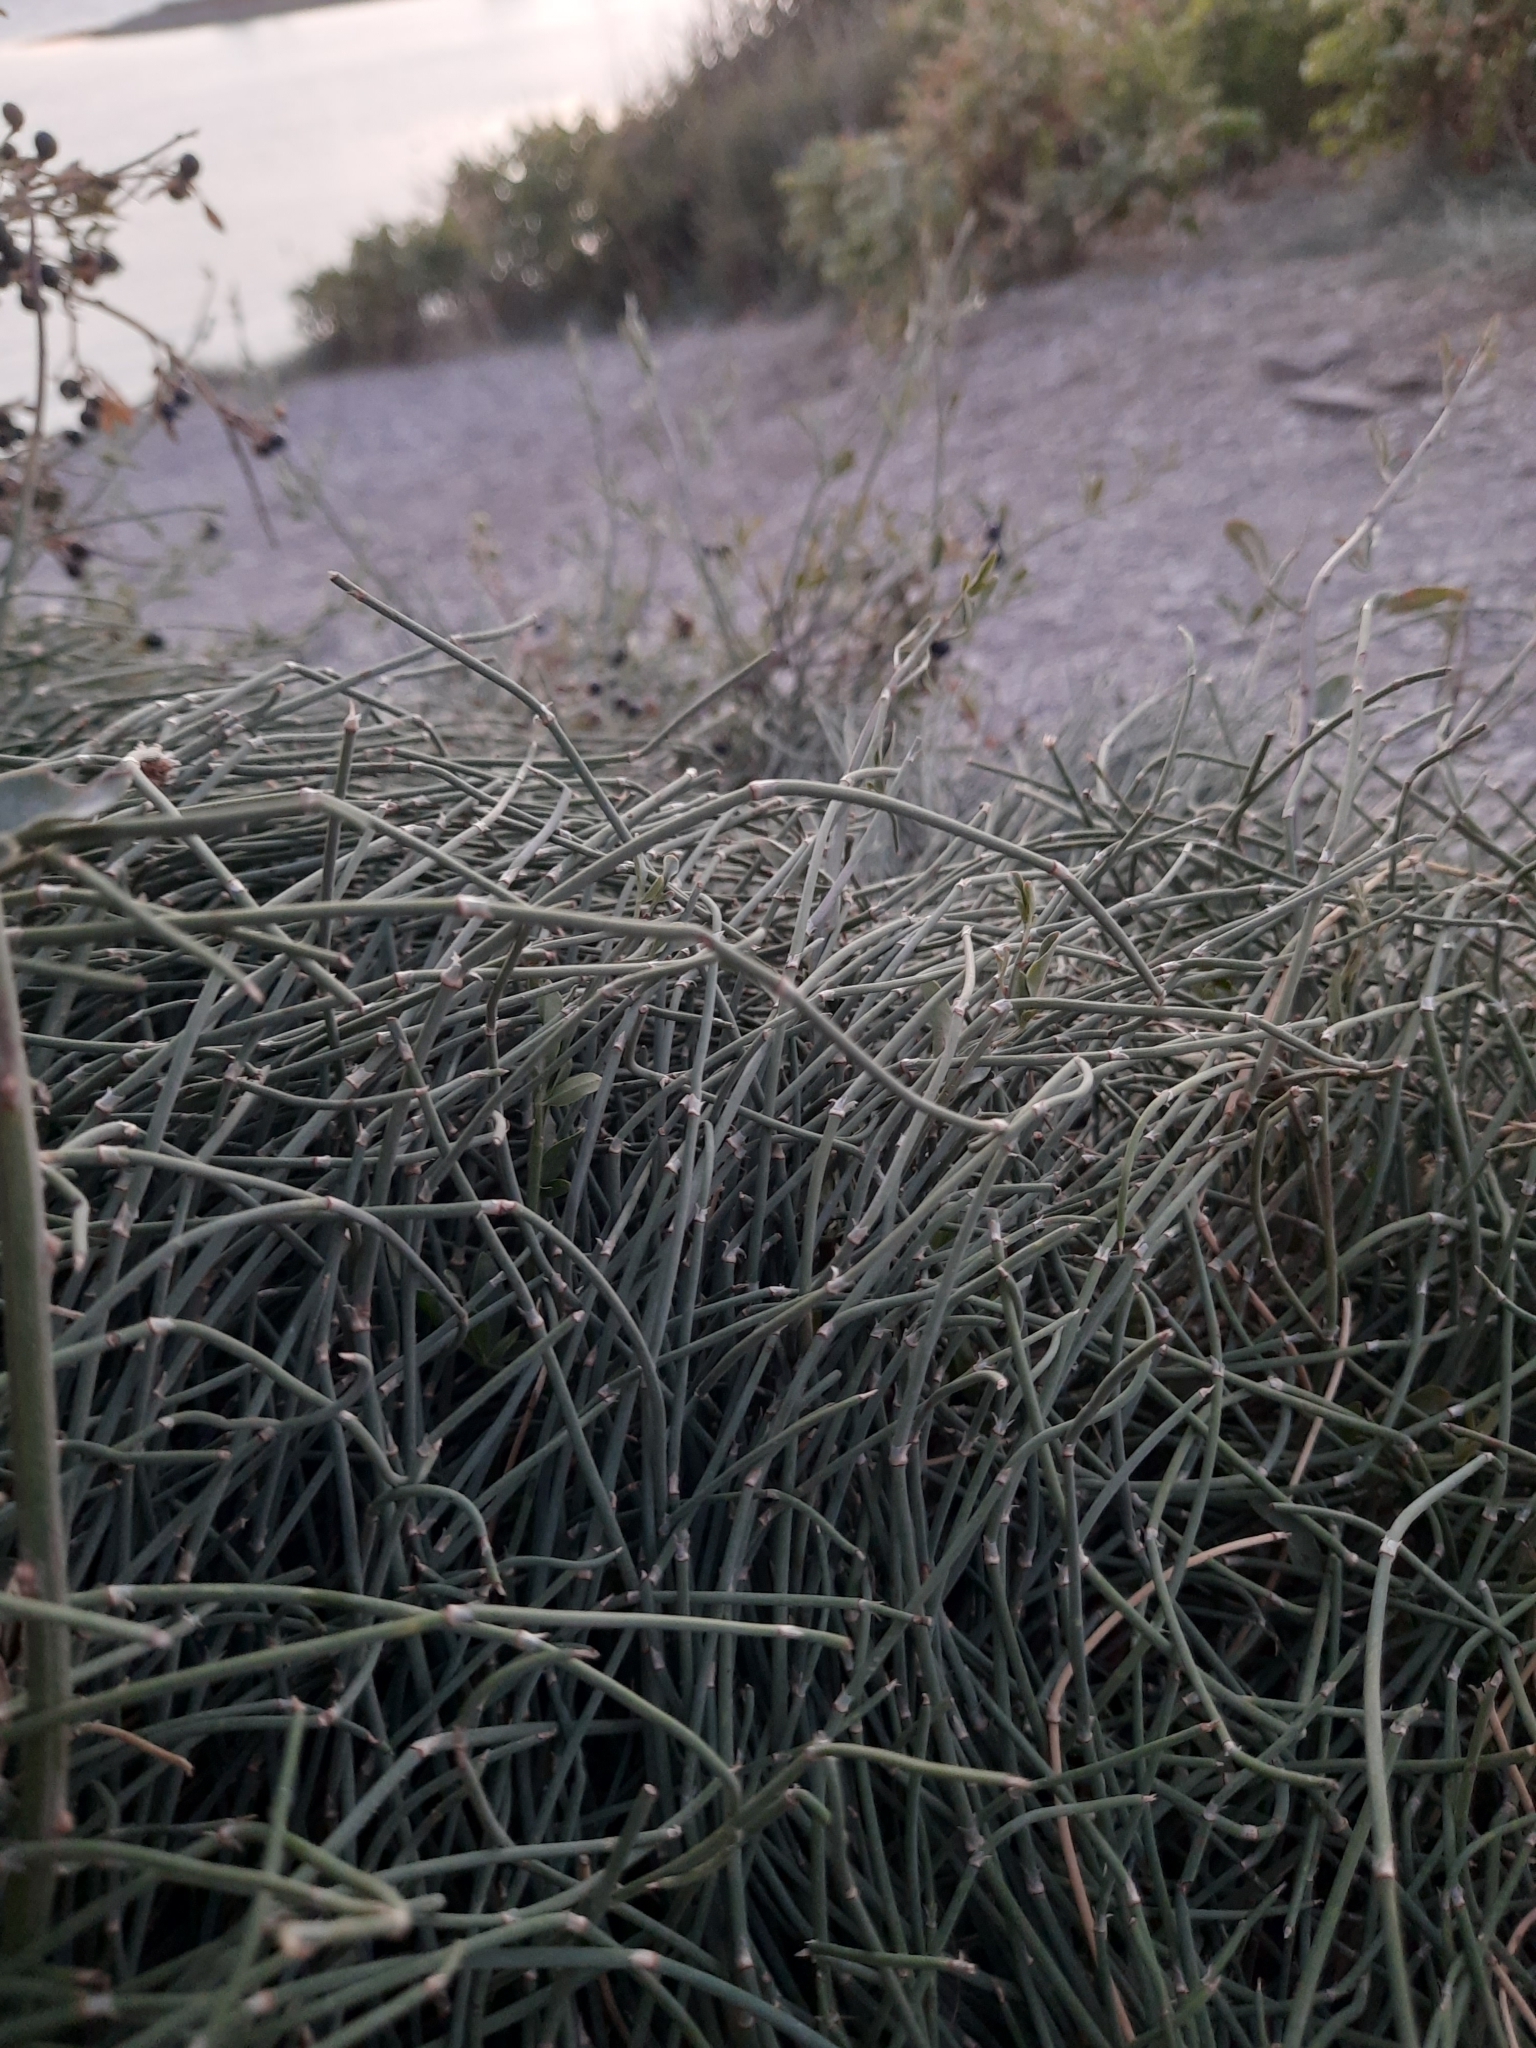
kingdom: Plantae
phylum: Tracheophyta
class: Gnetopsida
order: Ephedrales
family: Ephedraceae
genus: Ephedra
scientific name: Ephedra distachya
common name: Sea grape
